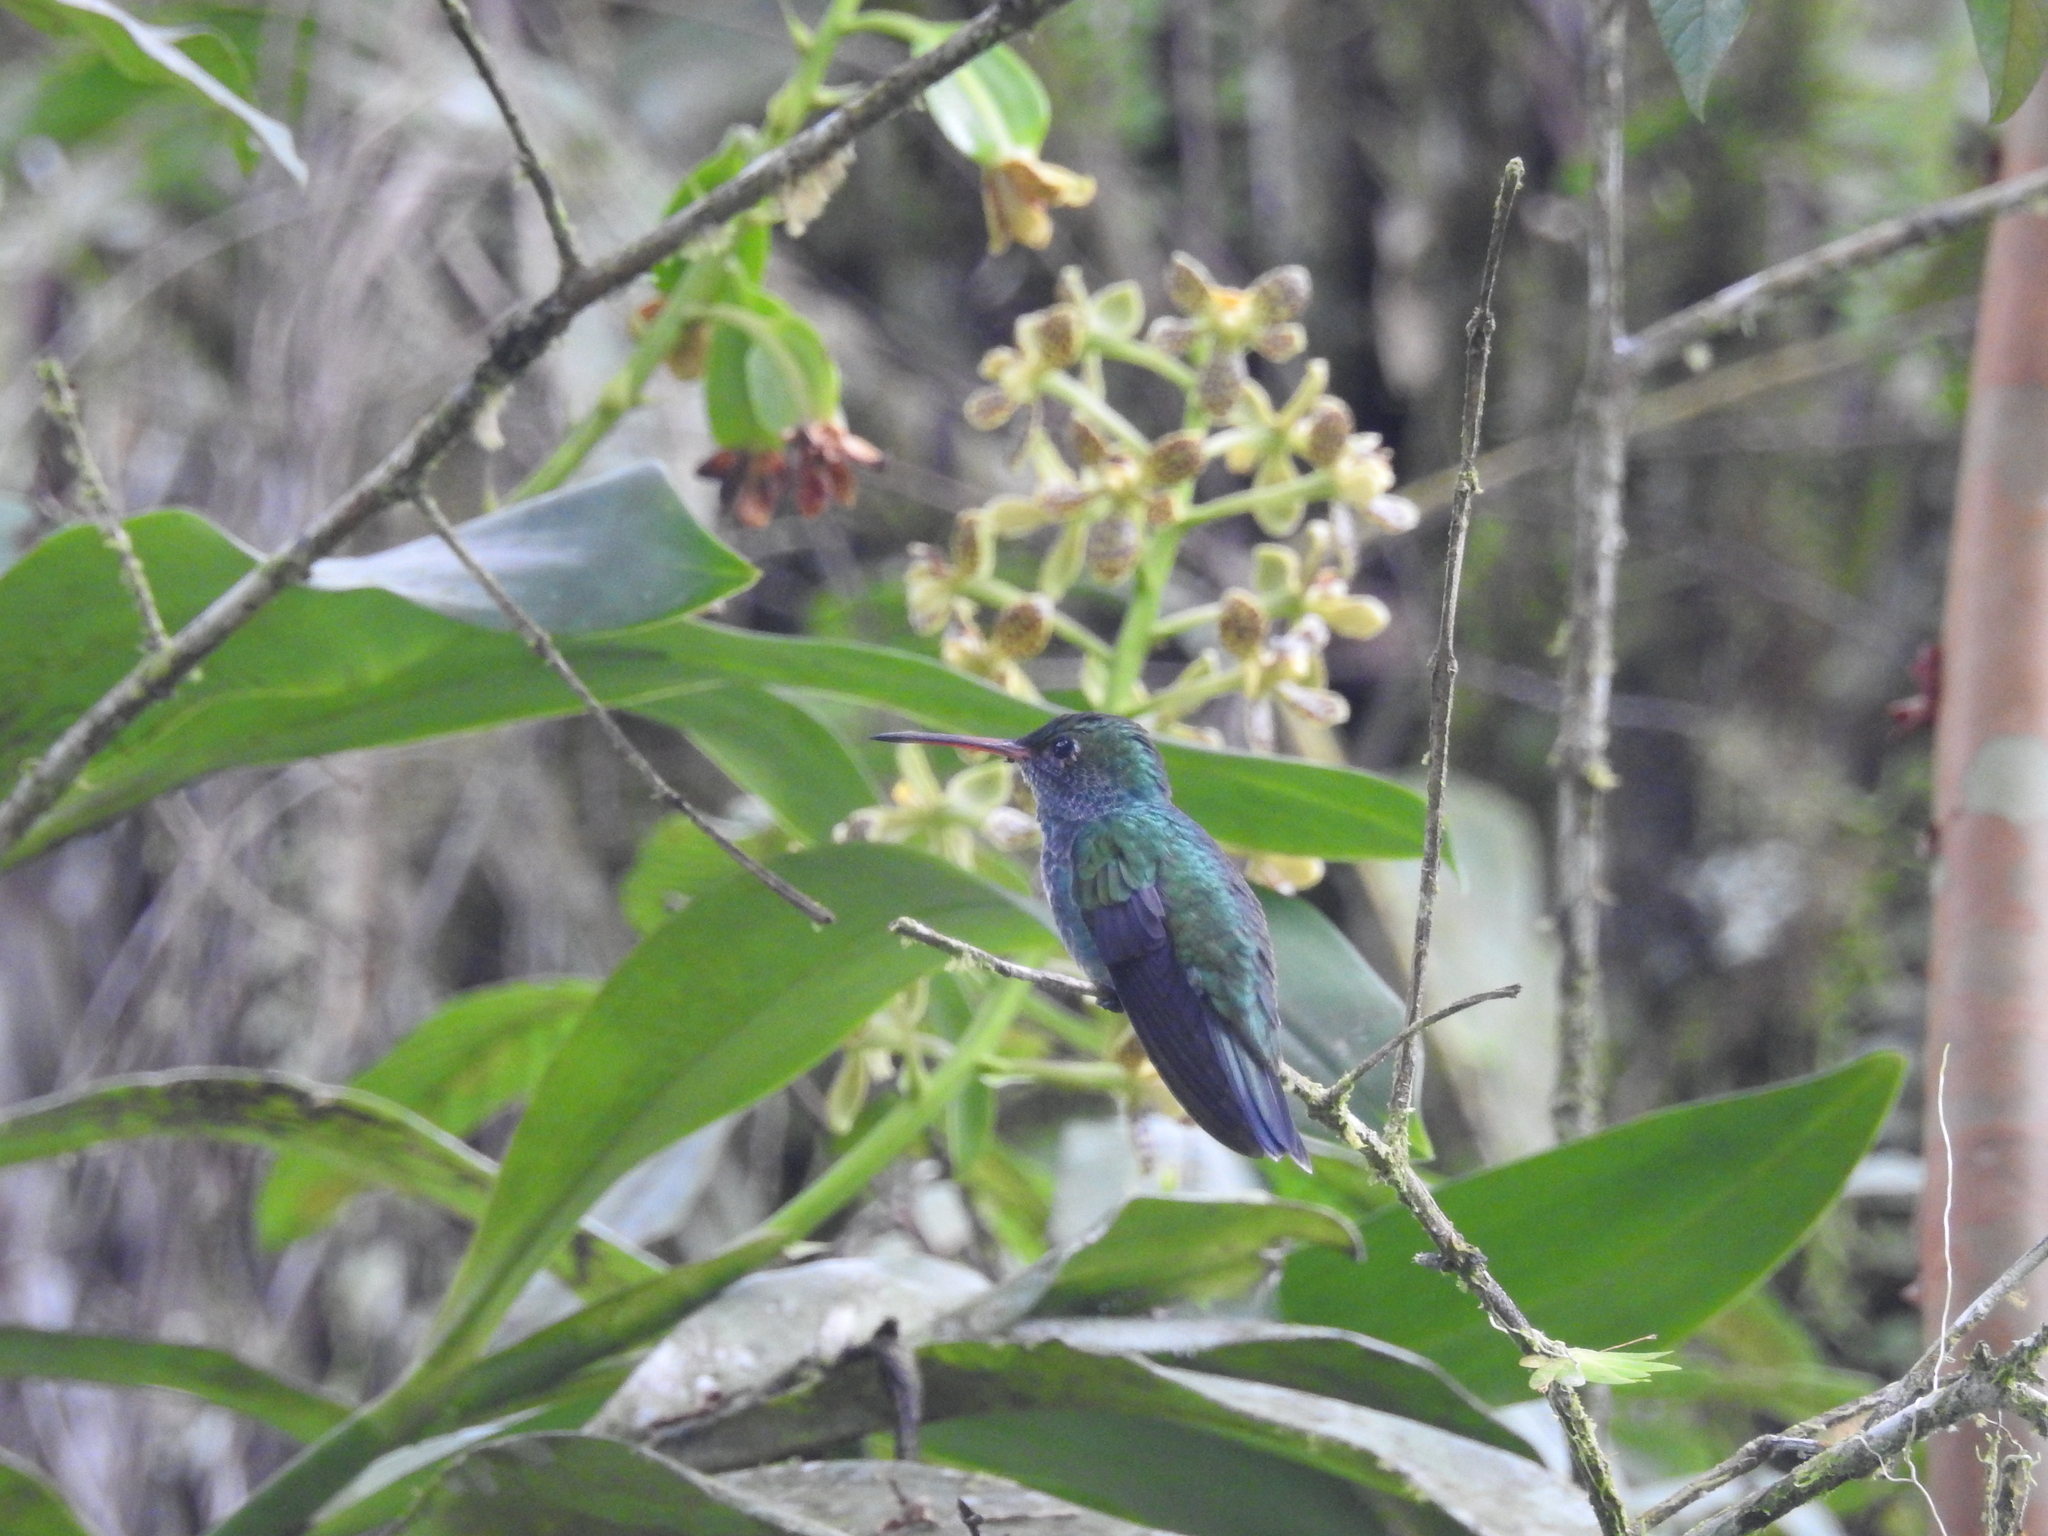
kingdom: Animalia
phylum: Chordata
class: Aves
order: Apodiformes
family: Trochilidae
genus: Chionomesa
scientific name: Chionomesa fimbriata
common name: Glittering-throated emerald
